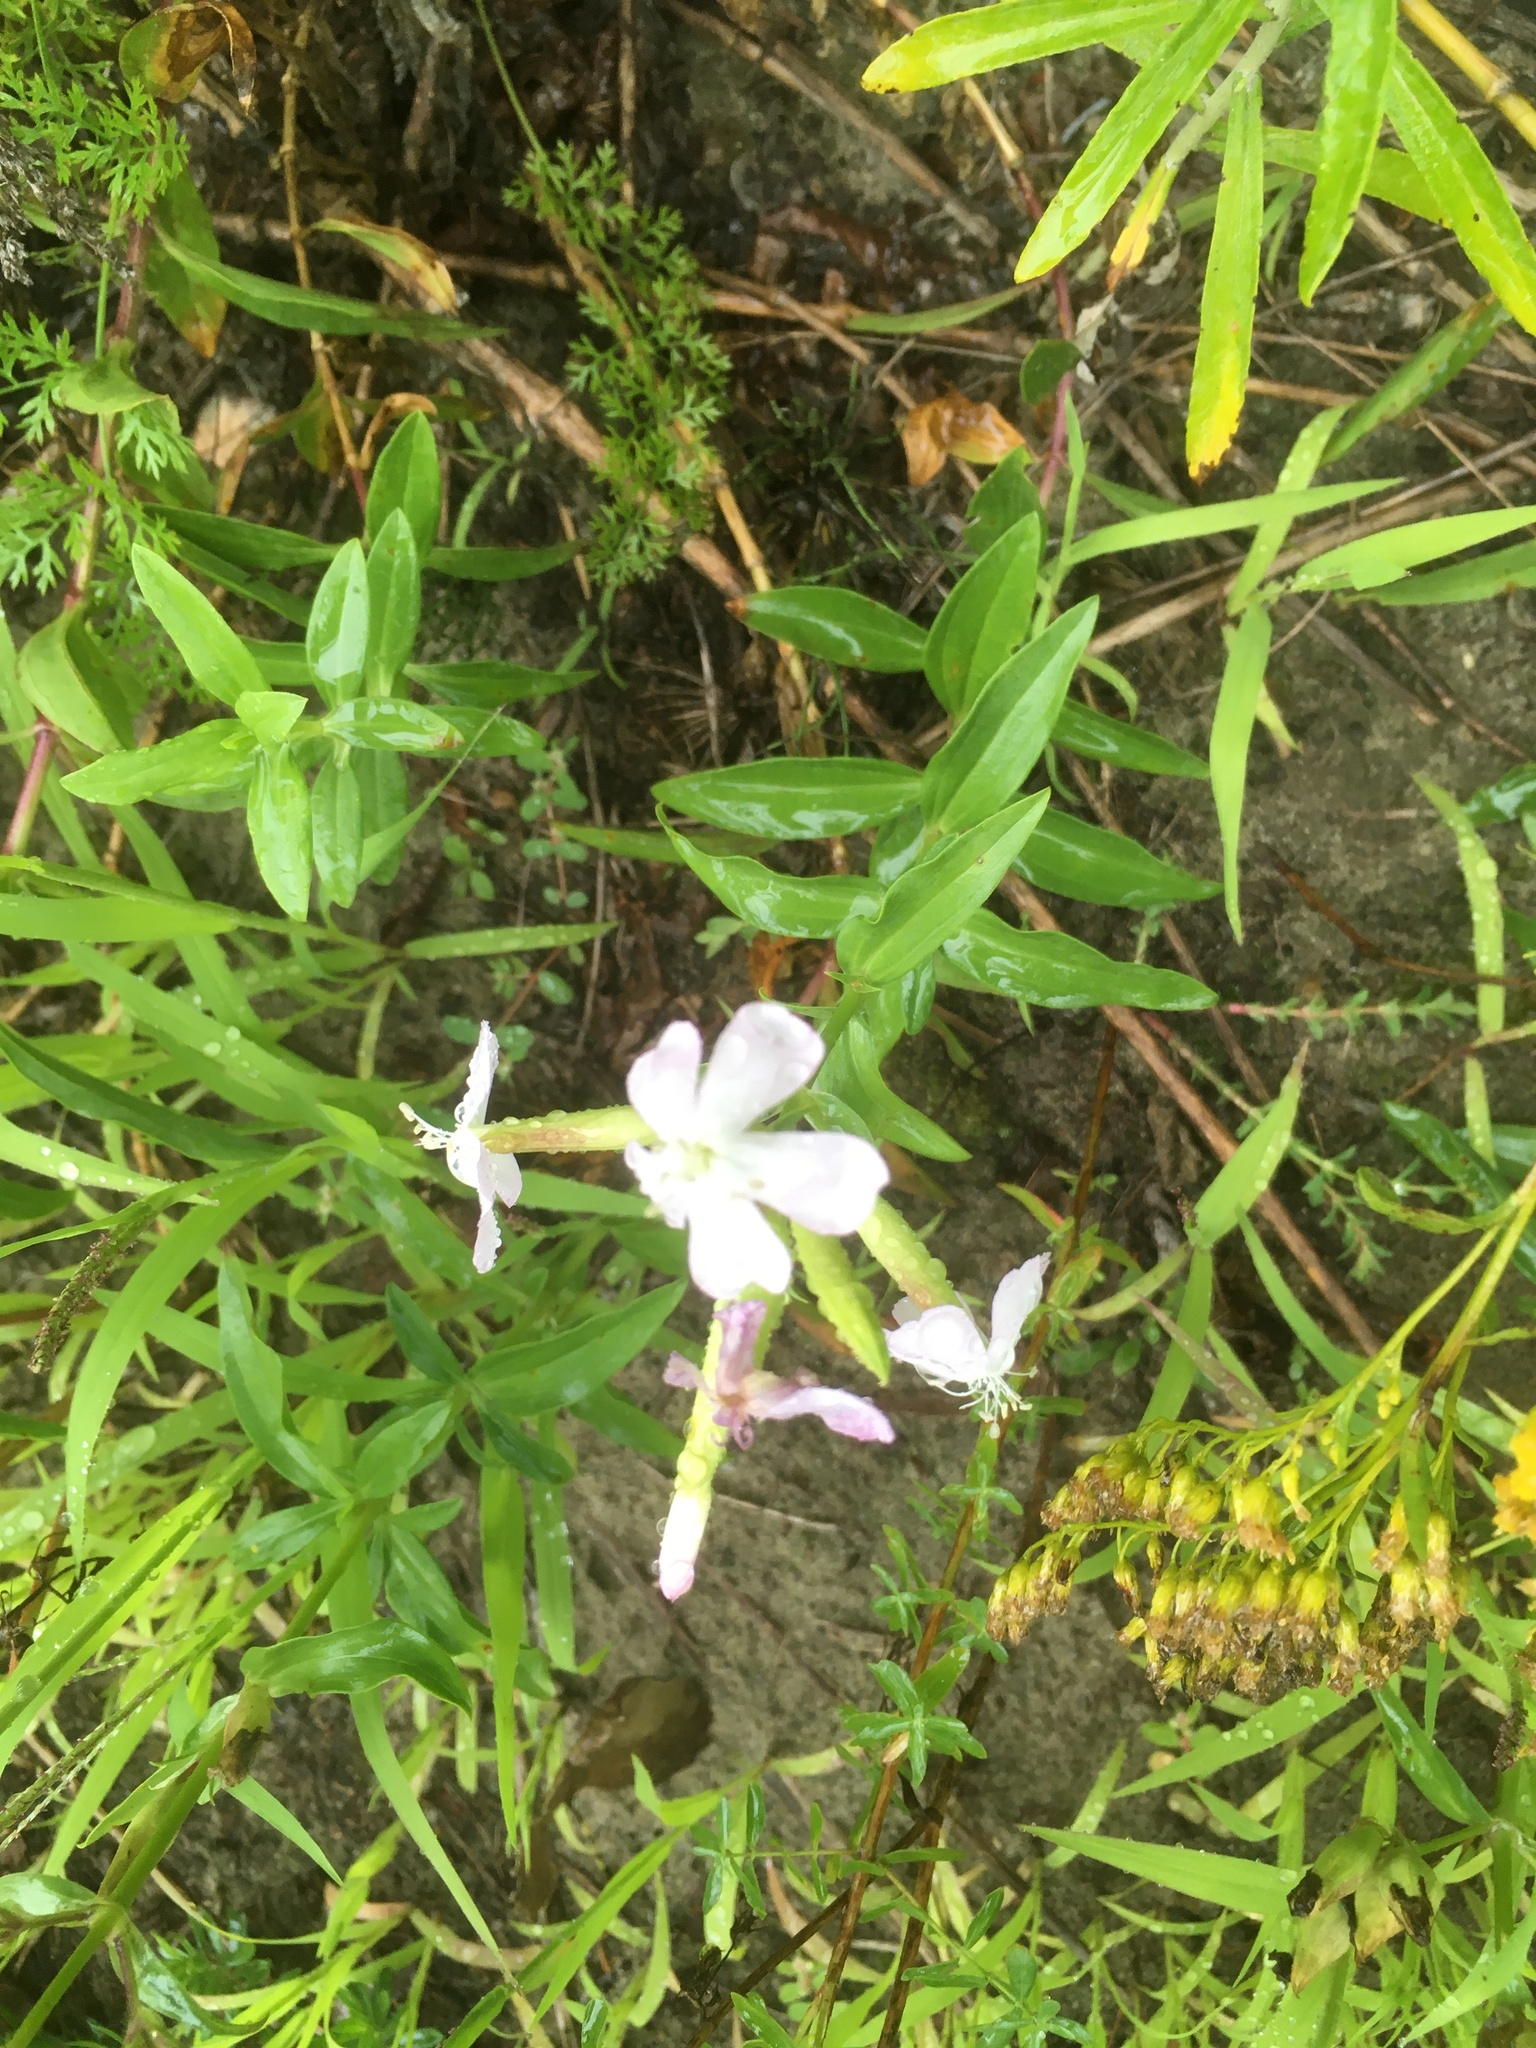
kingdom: Plantae
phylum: Tracheophyta
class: Magnoliopsida
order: Caryophyllales
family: Caryophyllaceae
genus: Saponaria
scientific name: Saponaria officinalis
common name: Soapwort
